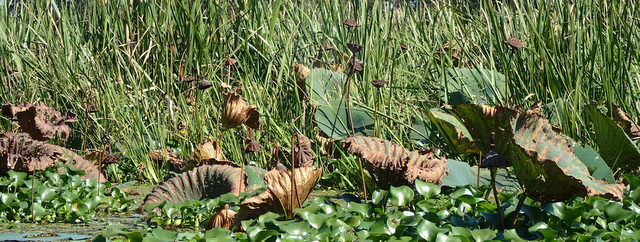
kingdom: Plantae
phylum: Tracheophyta
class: Magnoliopsida
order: Proteales
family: Nelumbonaceae
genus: Nelumbo
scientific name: Nelumbo lutea
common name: American lotus
